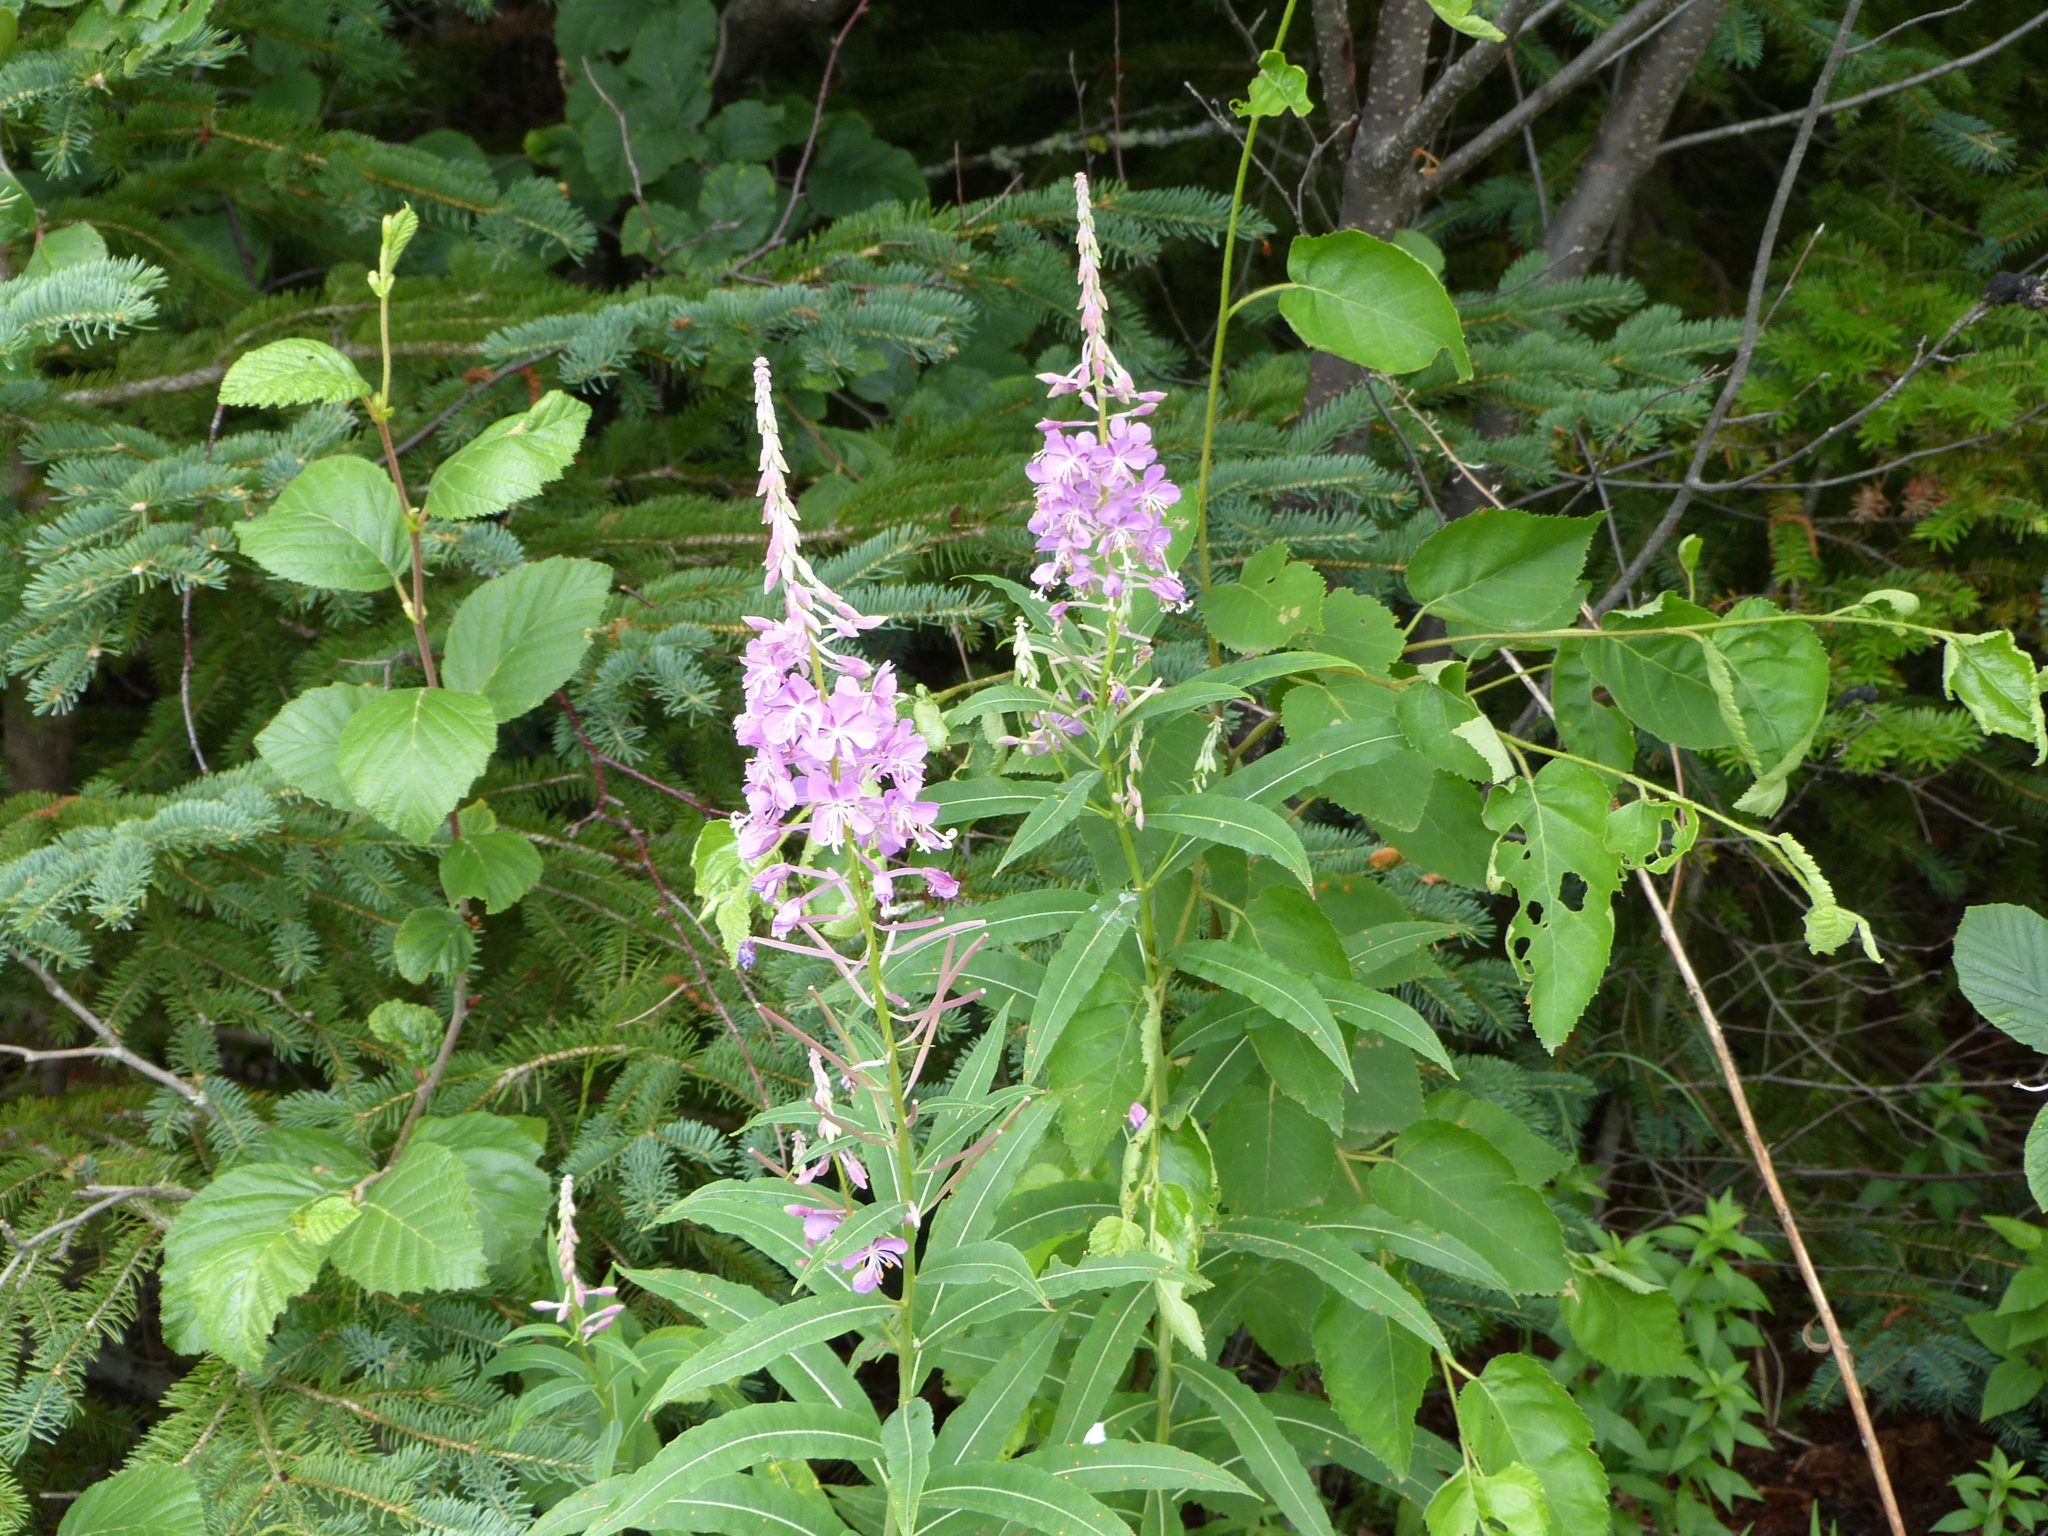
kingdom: Plantae
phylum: Tracheophyta
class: Magnoliopsida
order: Myrtales
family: Onagraceae
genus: Chamaenerion
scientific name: Chamaenerion angustifolium
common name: Fireweed
